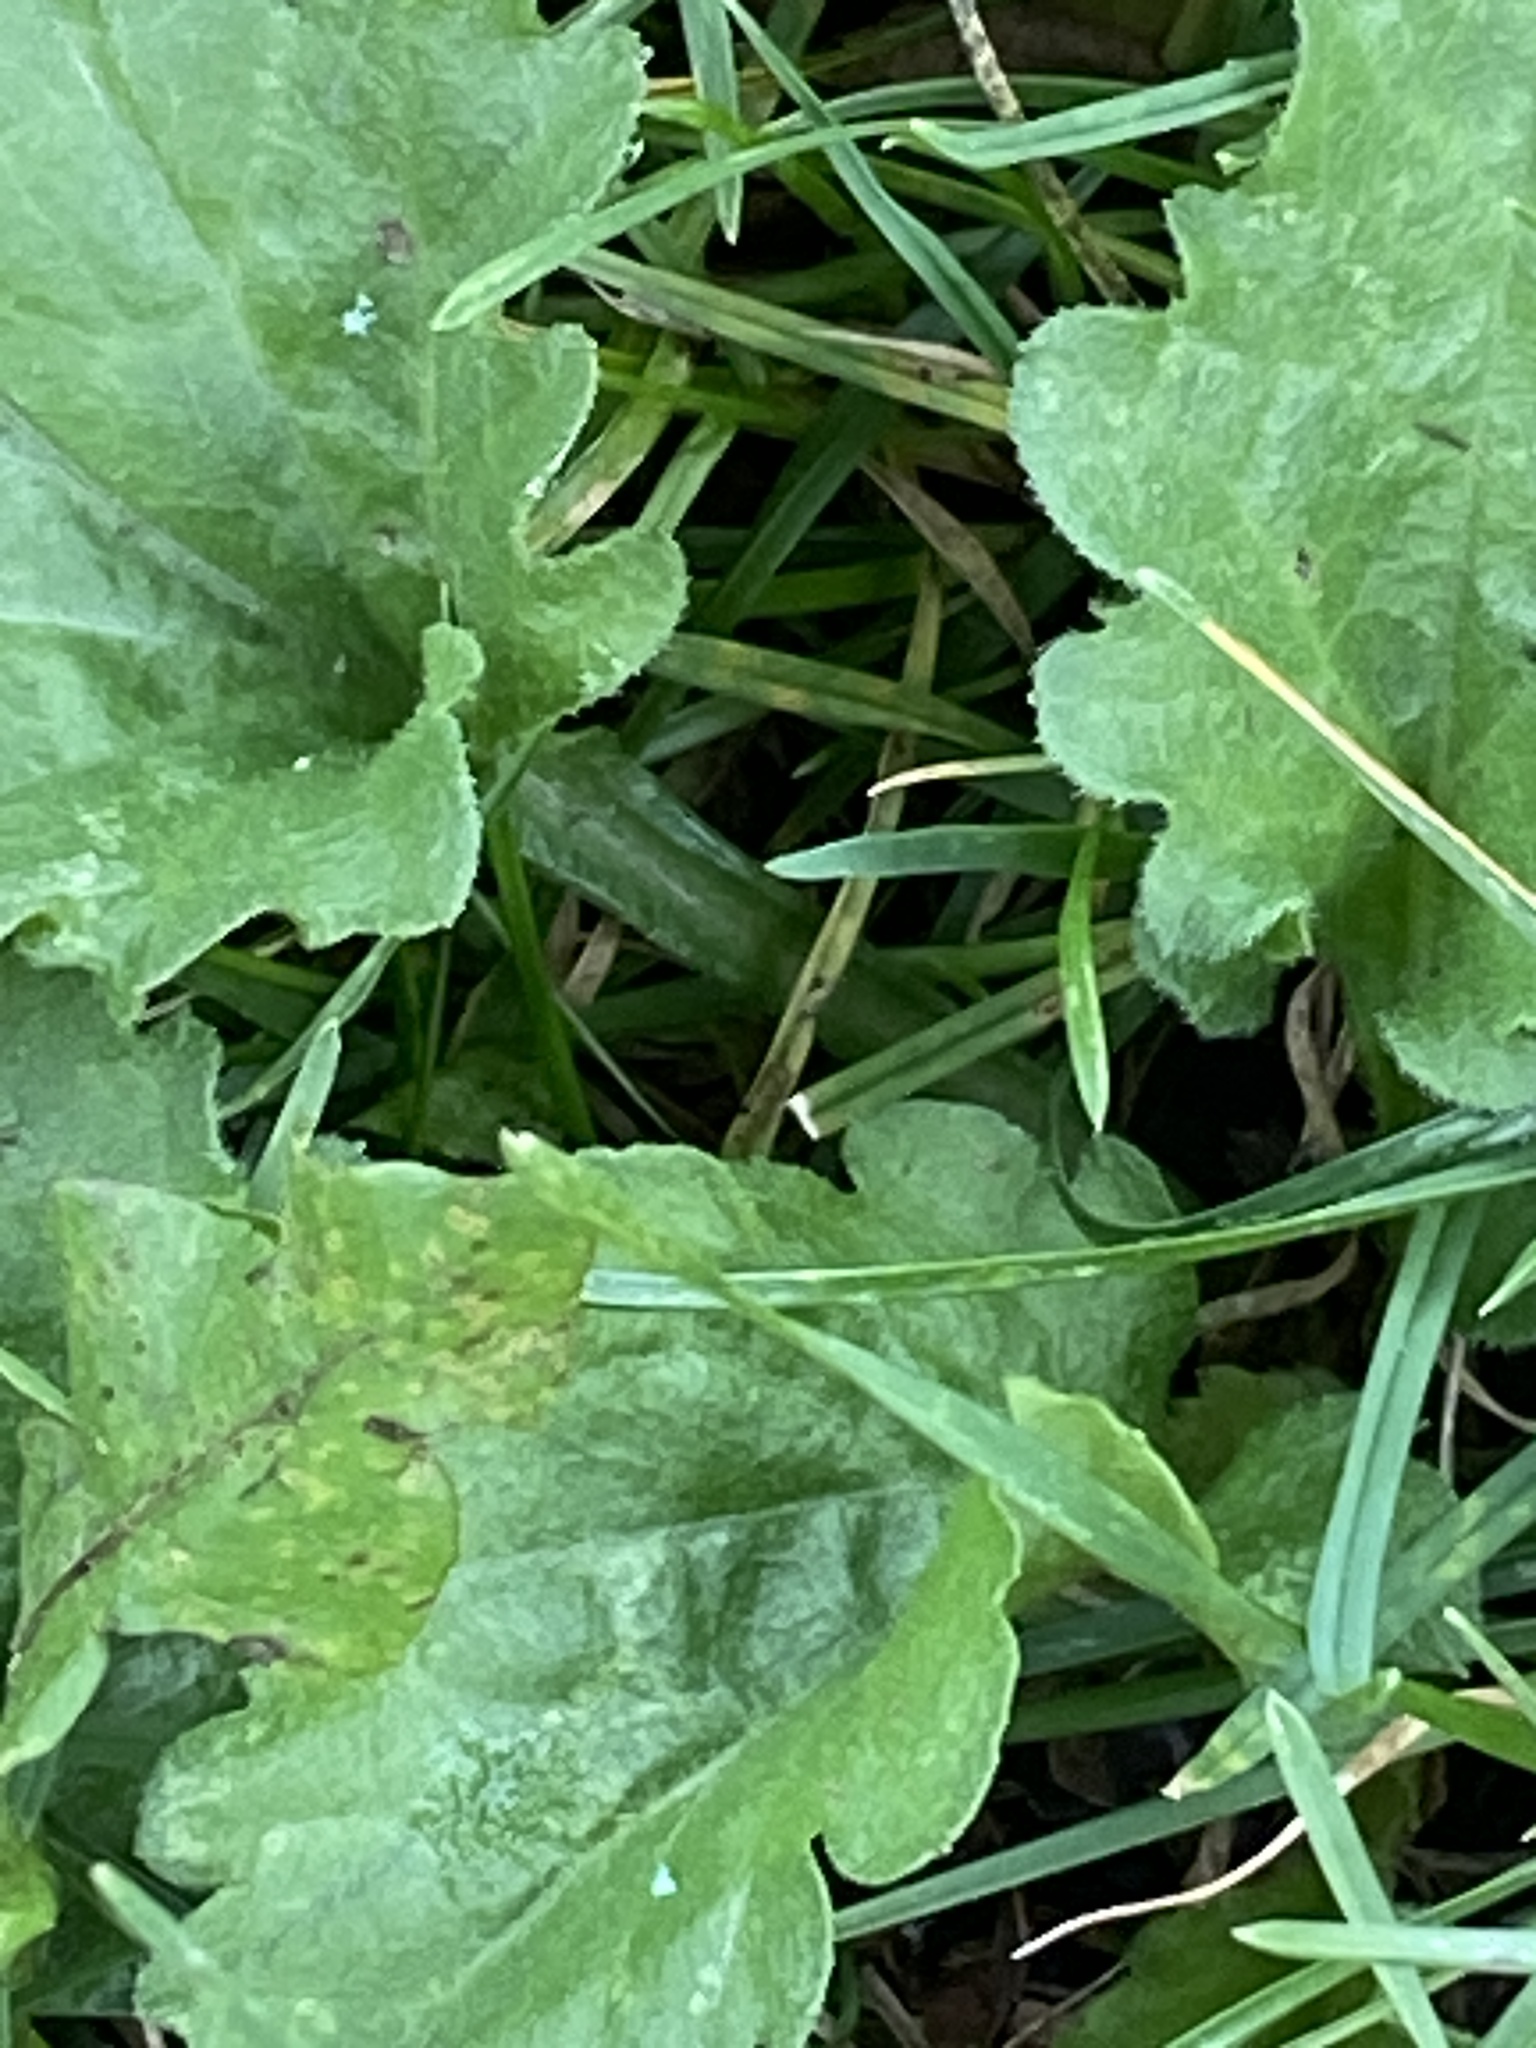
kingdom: Plantae
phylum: Tracheophyta
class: Magnoliopsida
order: Asterales
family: Asteraceae
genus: Erigeron
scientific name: Erigeron annuus
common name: Tall fleabane
